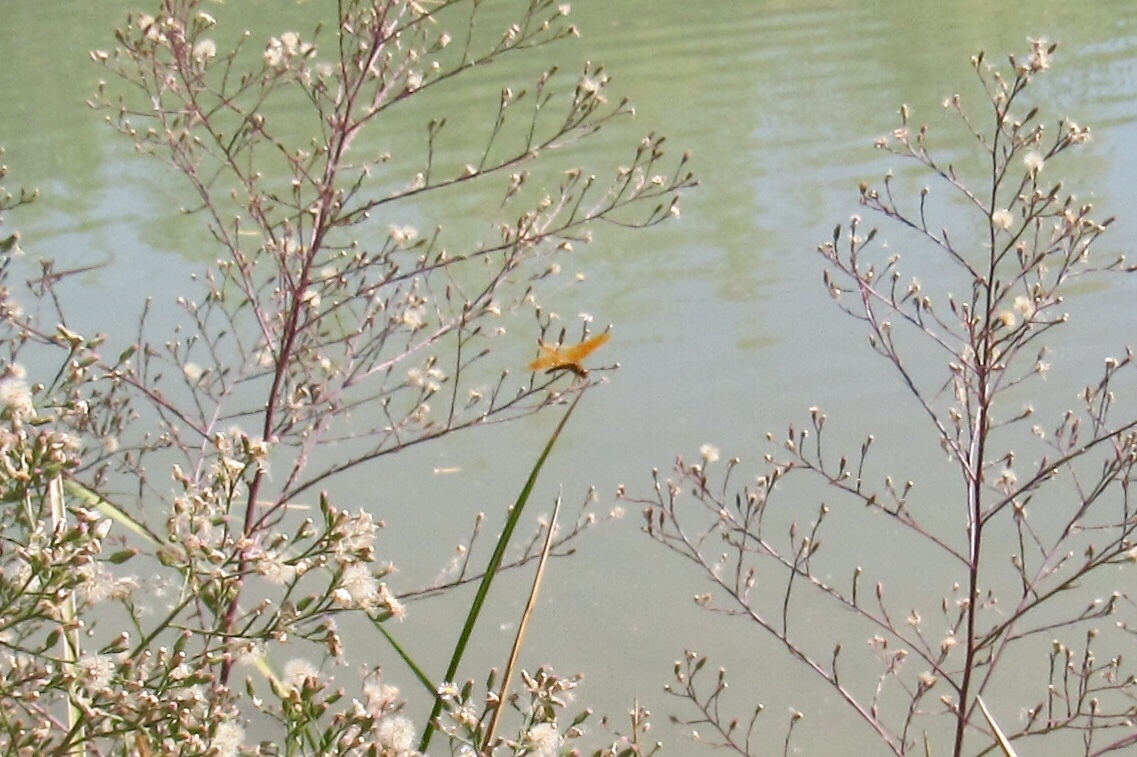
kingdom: Animalia
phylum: Arthropoda
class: Insecta
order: Odonata
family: Libellulidae
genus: Perithemis
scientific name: Perithemis intensa
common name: Mexican amberwing
